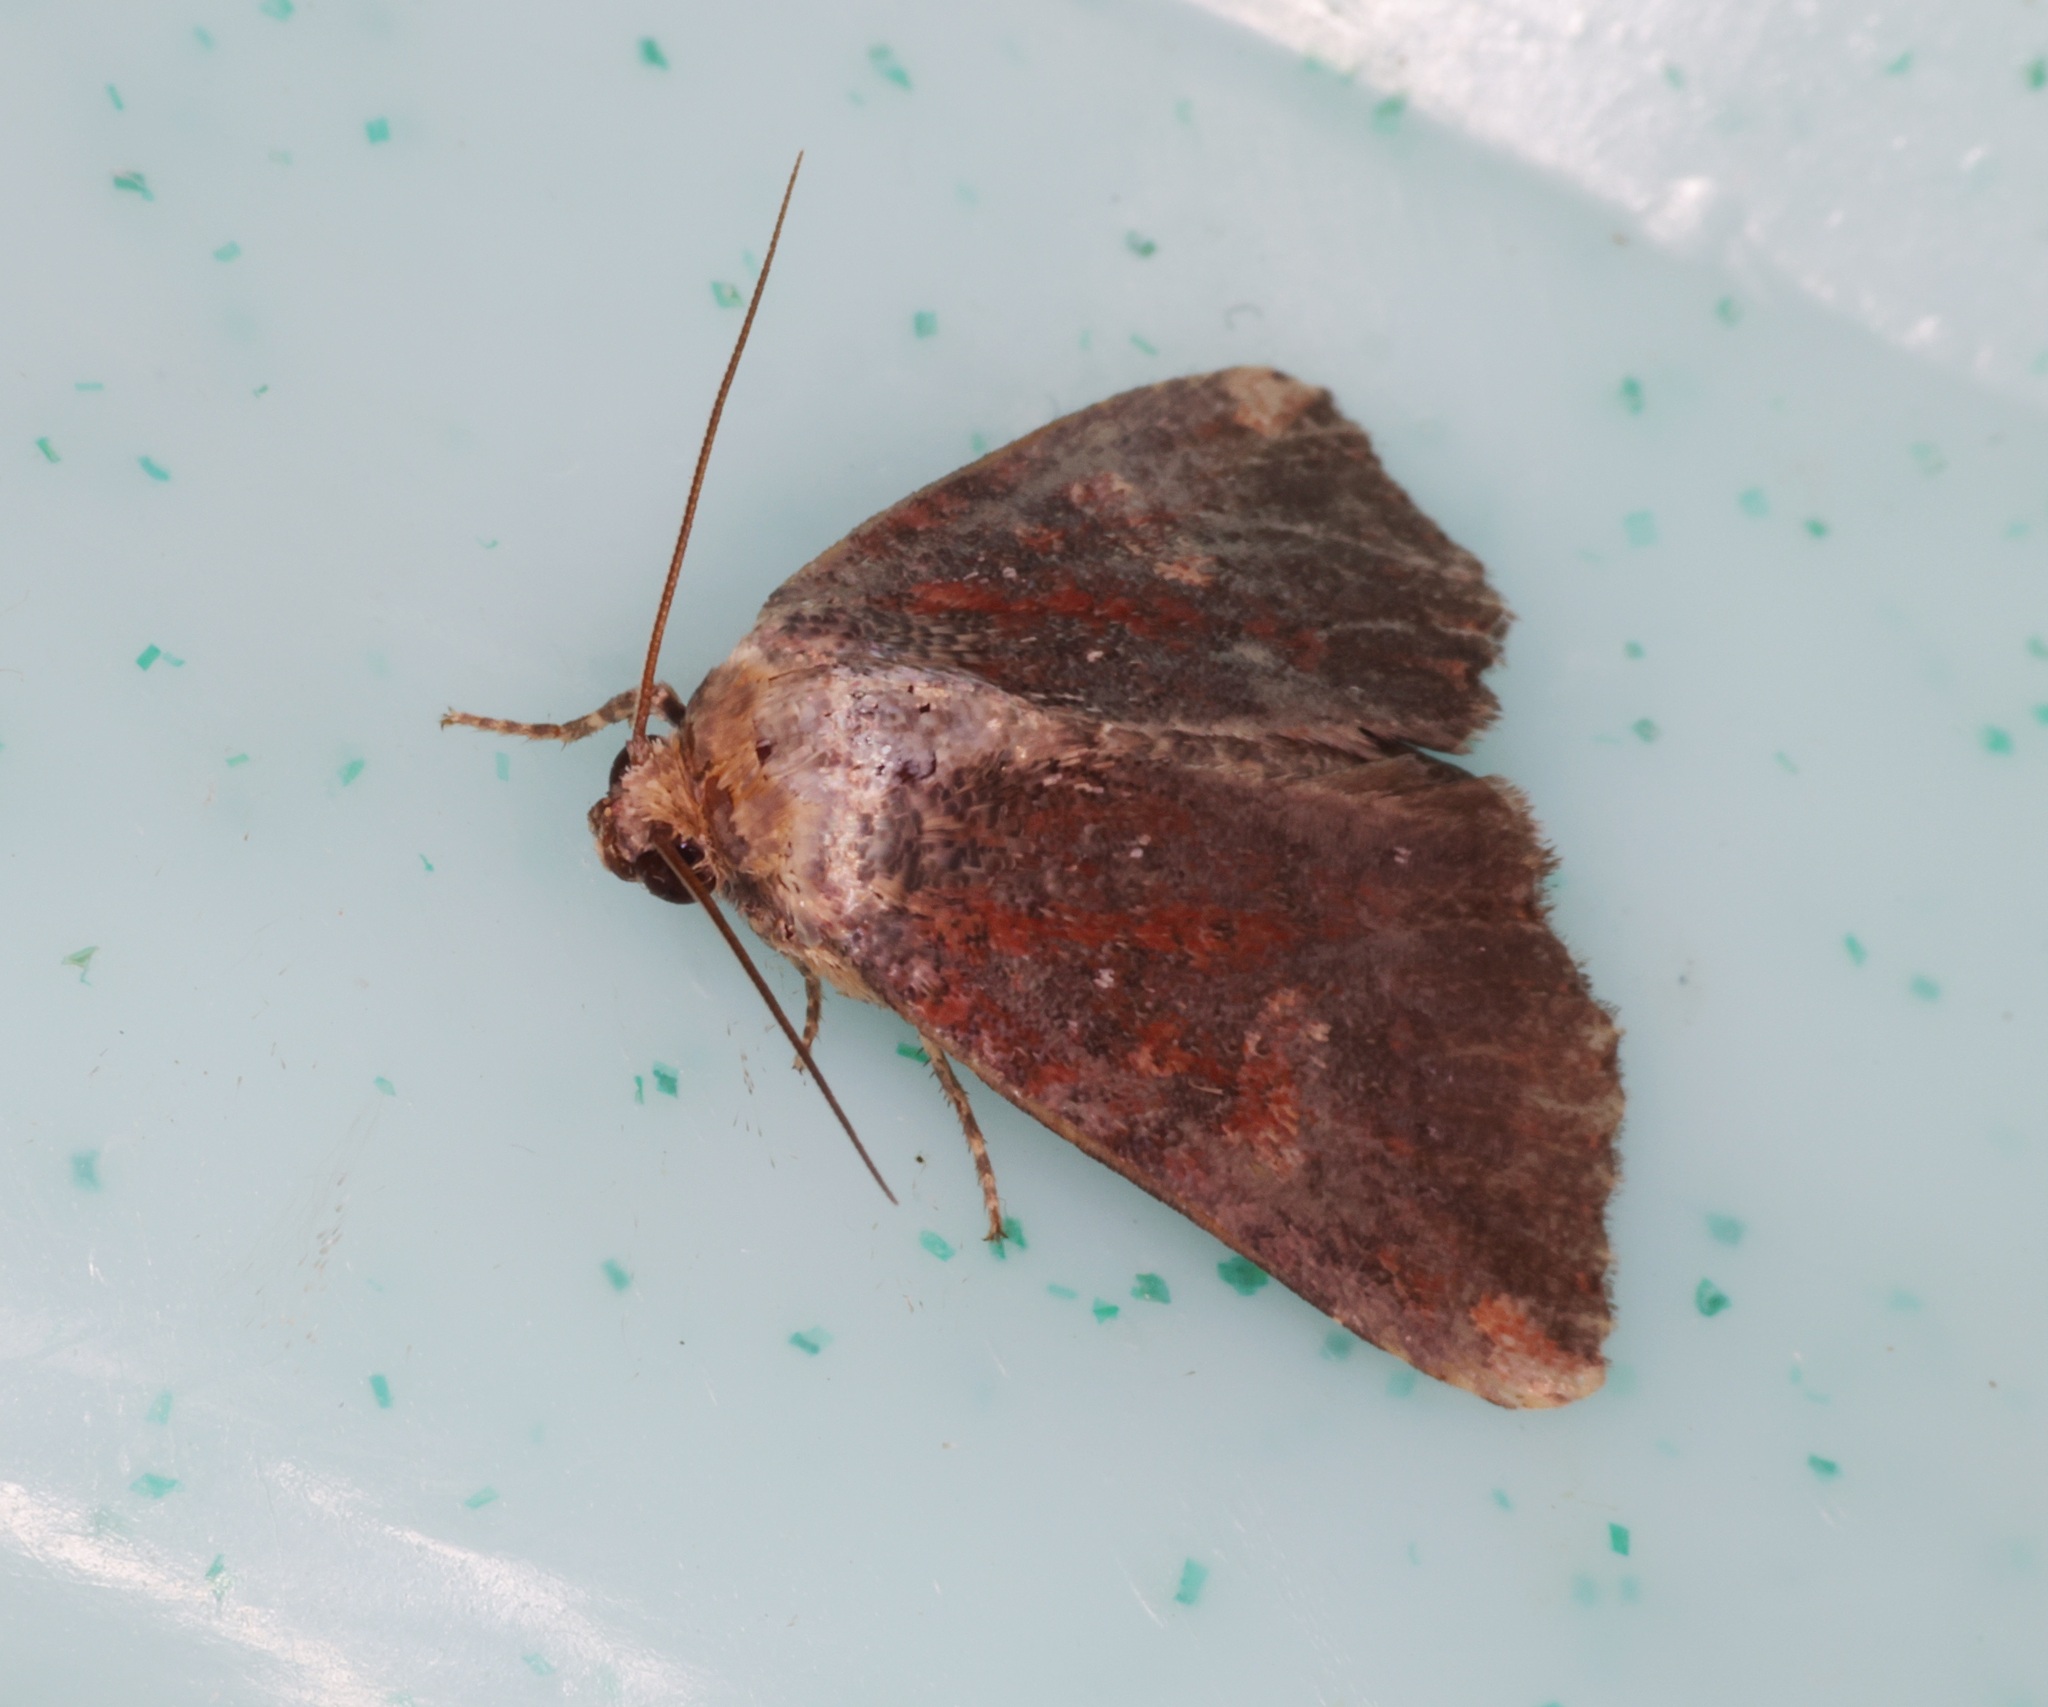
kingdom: Animalia
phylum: Arthropoda
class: Insecta
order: Lepidoptera
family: Noctuidae
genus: Bagada
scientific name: Bagada malayica
